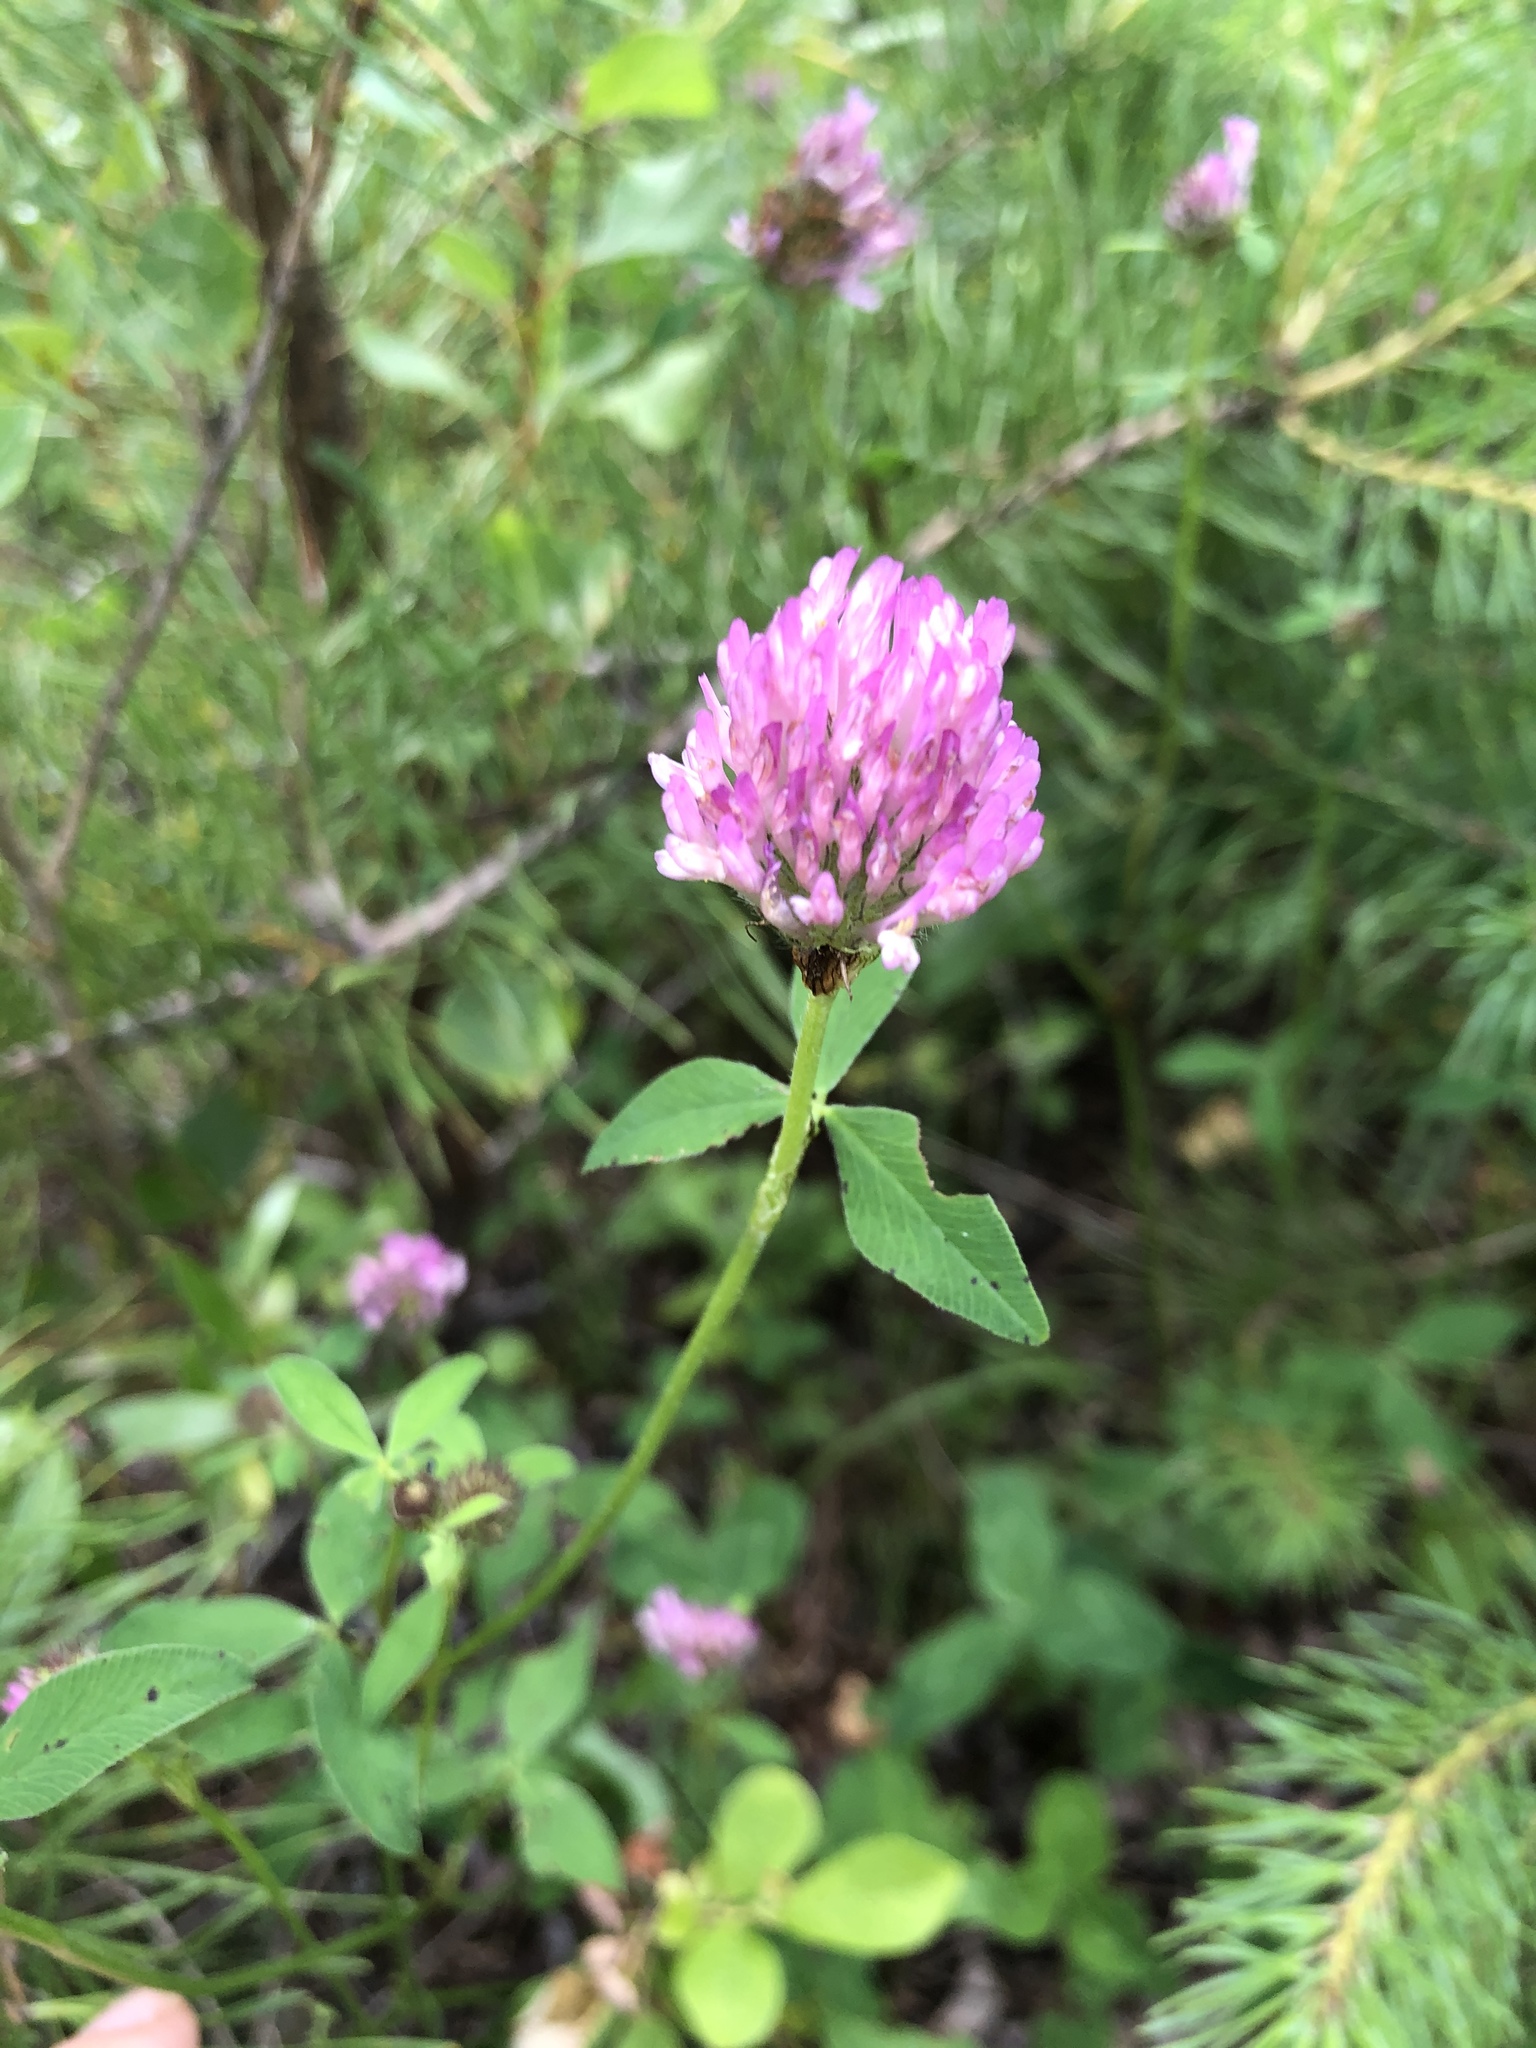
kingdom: Plantae
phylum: Tracheophyta
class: Magnoliopsida
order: Fabales
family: Fabaceae
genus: Trifolium
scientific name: Trifolium pratense
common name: Red clover
